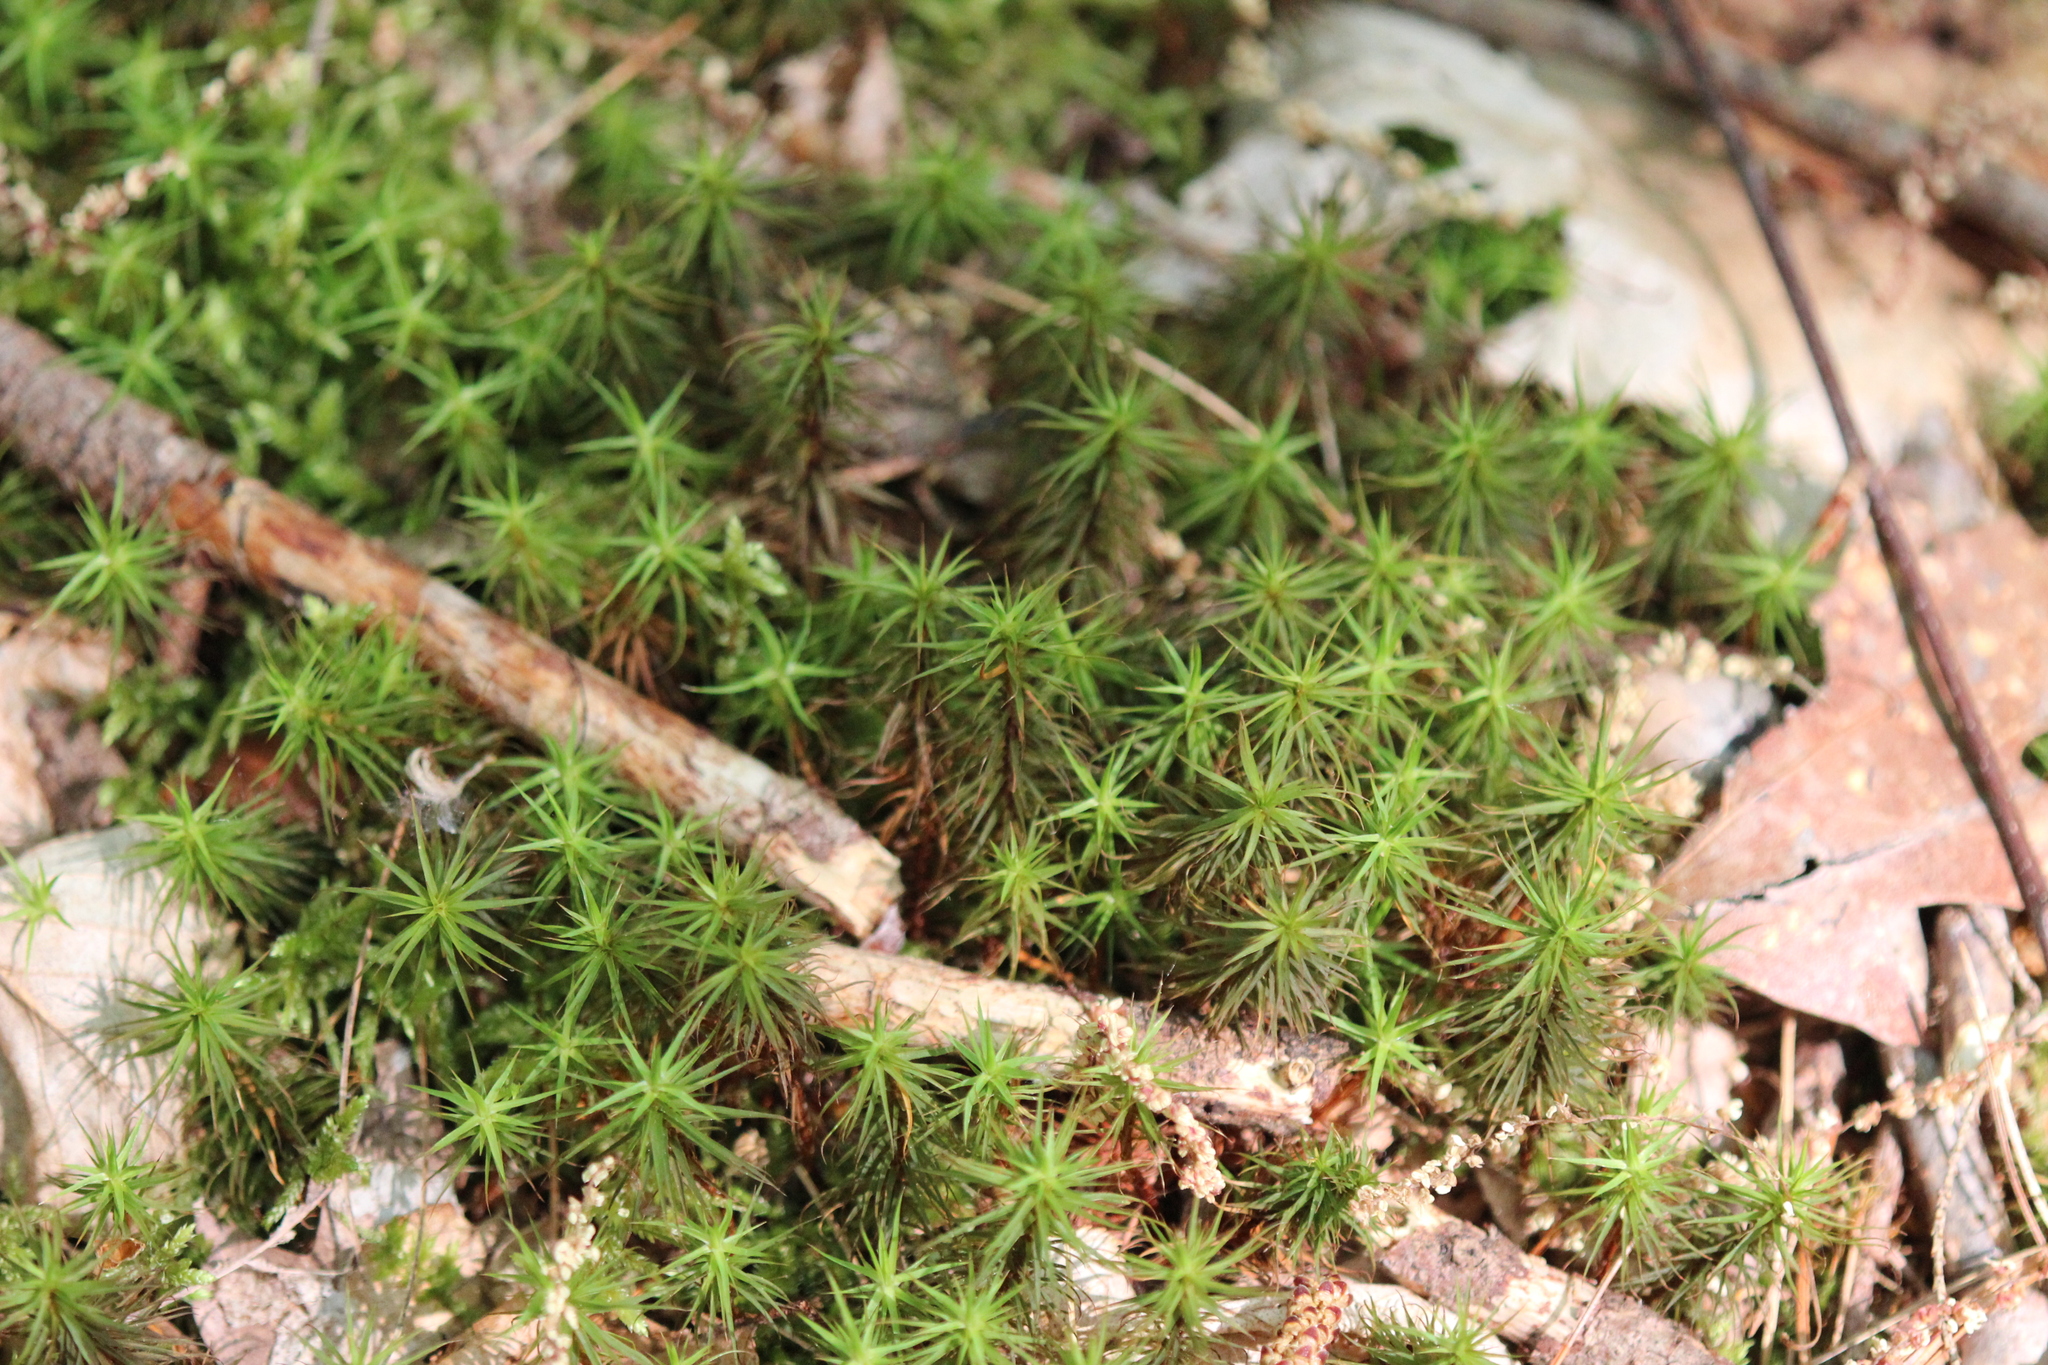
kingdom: Plantae
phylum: Bryophyta
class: Polytrichopsida
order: Polytrichales
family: Polytrichaceae
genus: Polytrichum
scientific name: Polytrichum commune
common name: Common haircap
